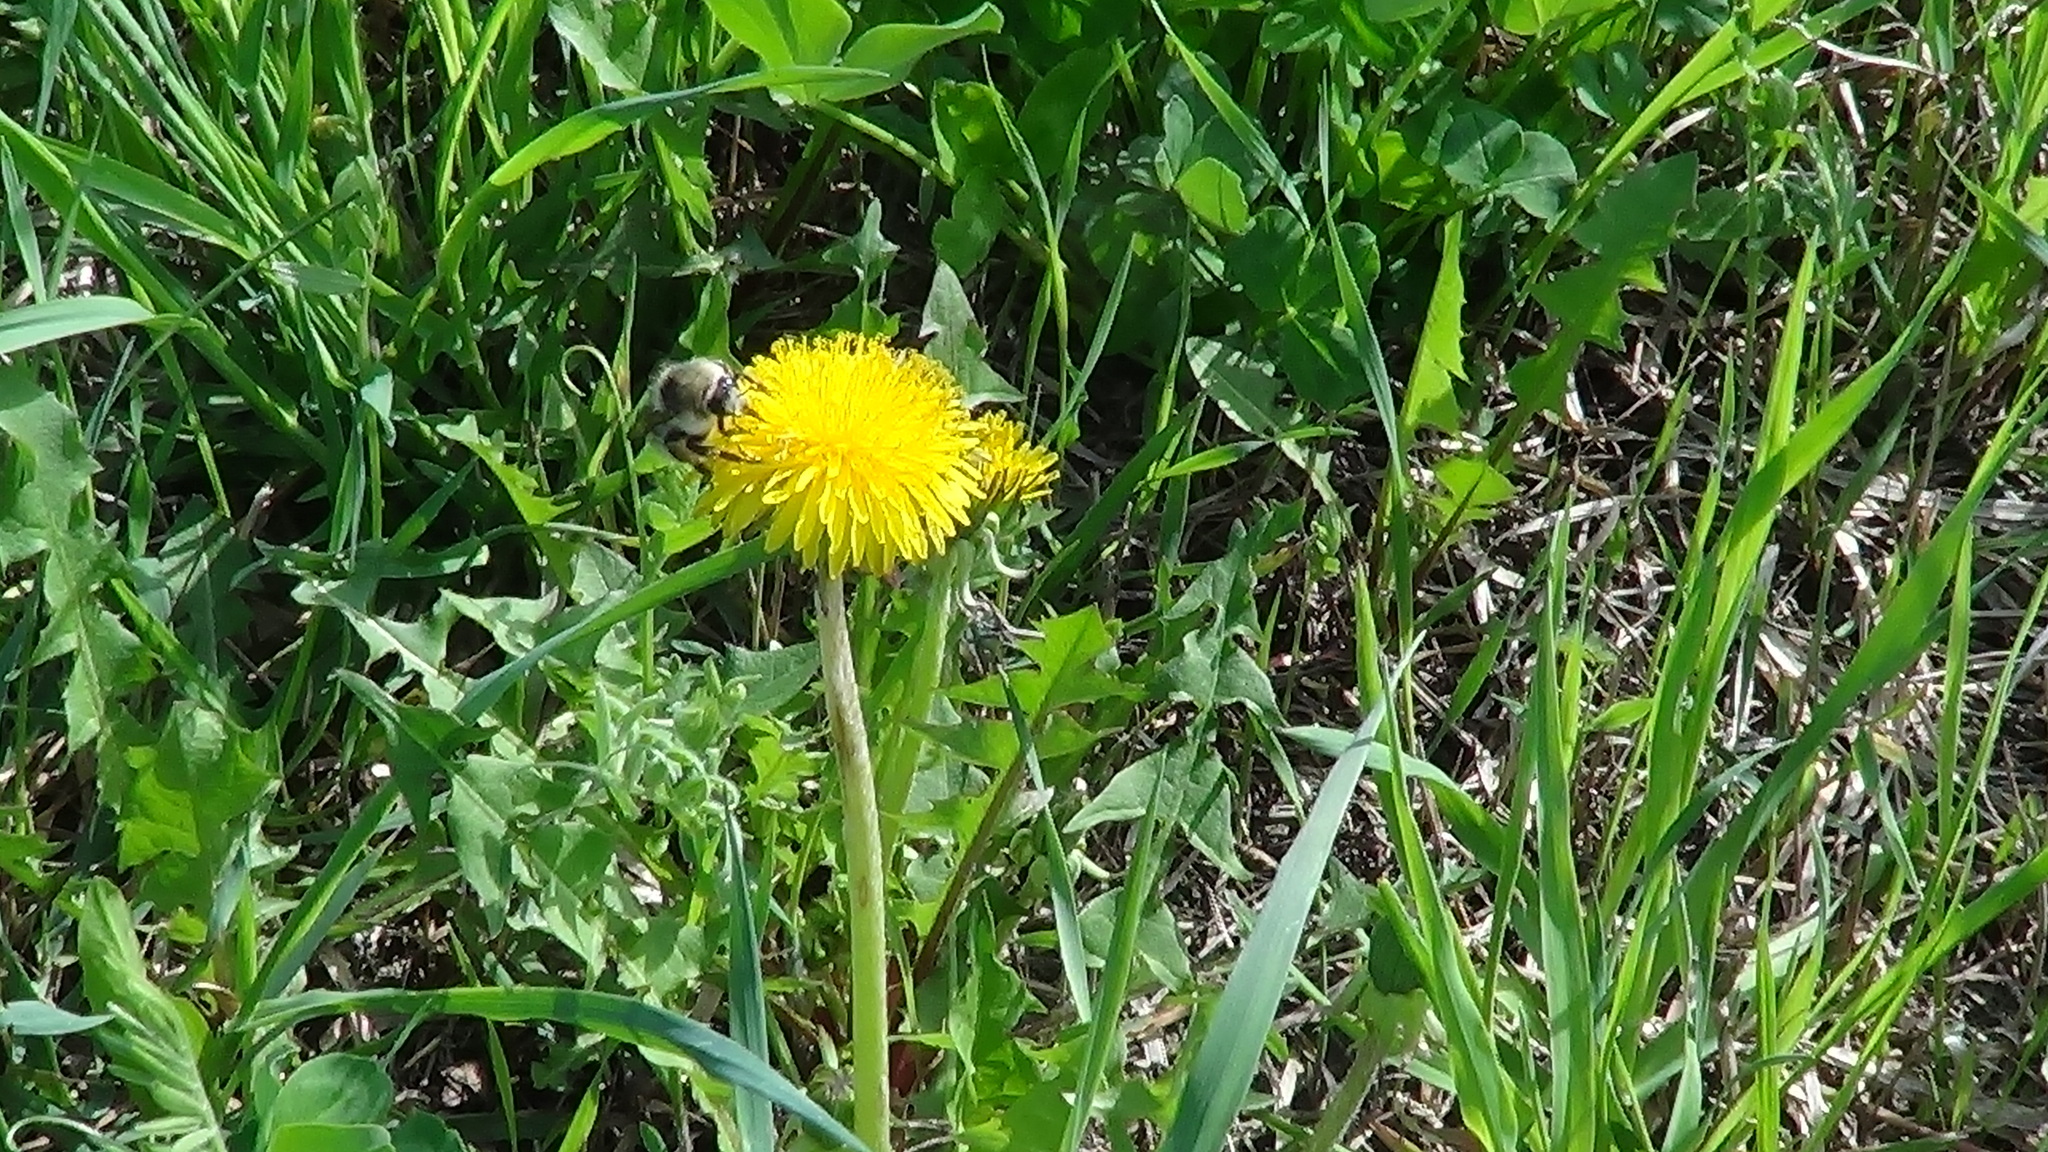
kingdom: Plantae
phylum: Tracheophyta
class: Magnoliopsida
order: Asterales
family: Asteraceae
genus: Taraxacum
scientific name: Taraxacum officinale
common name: Common dandelion
